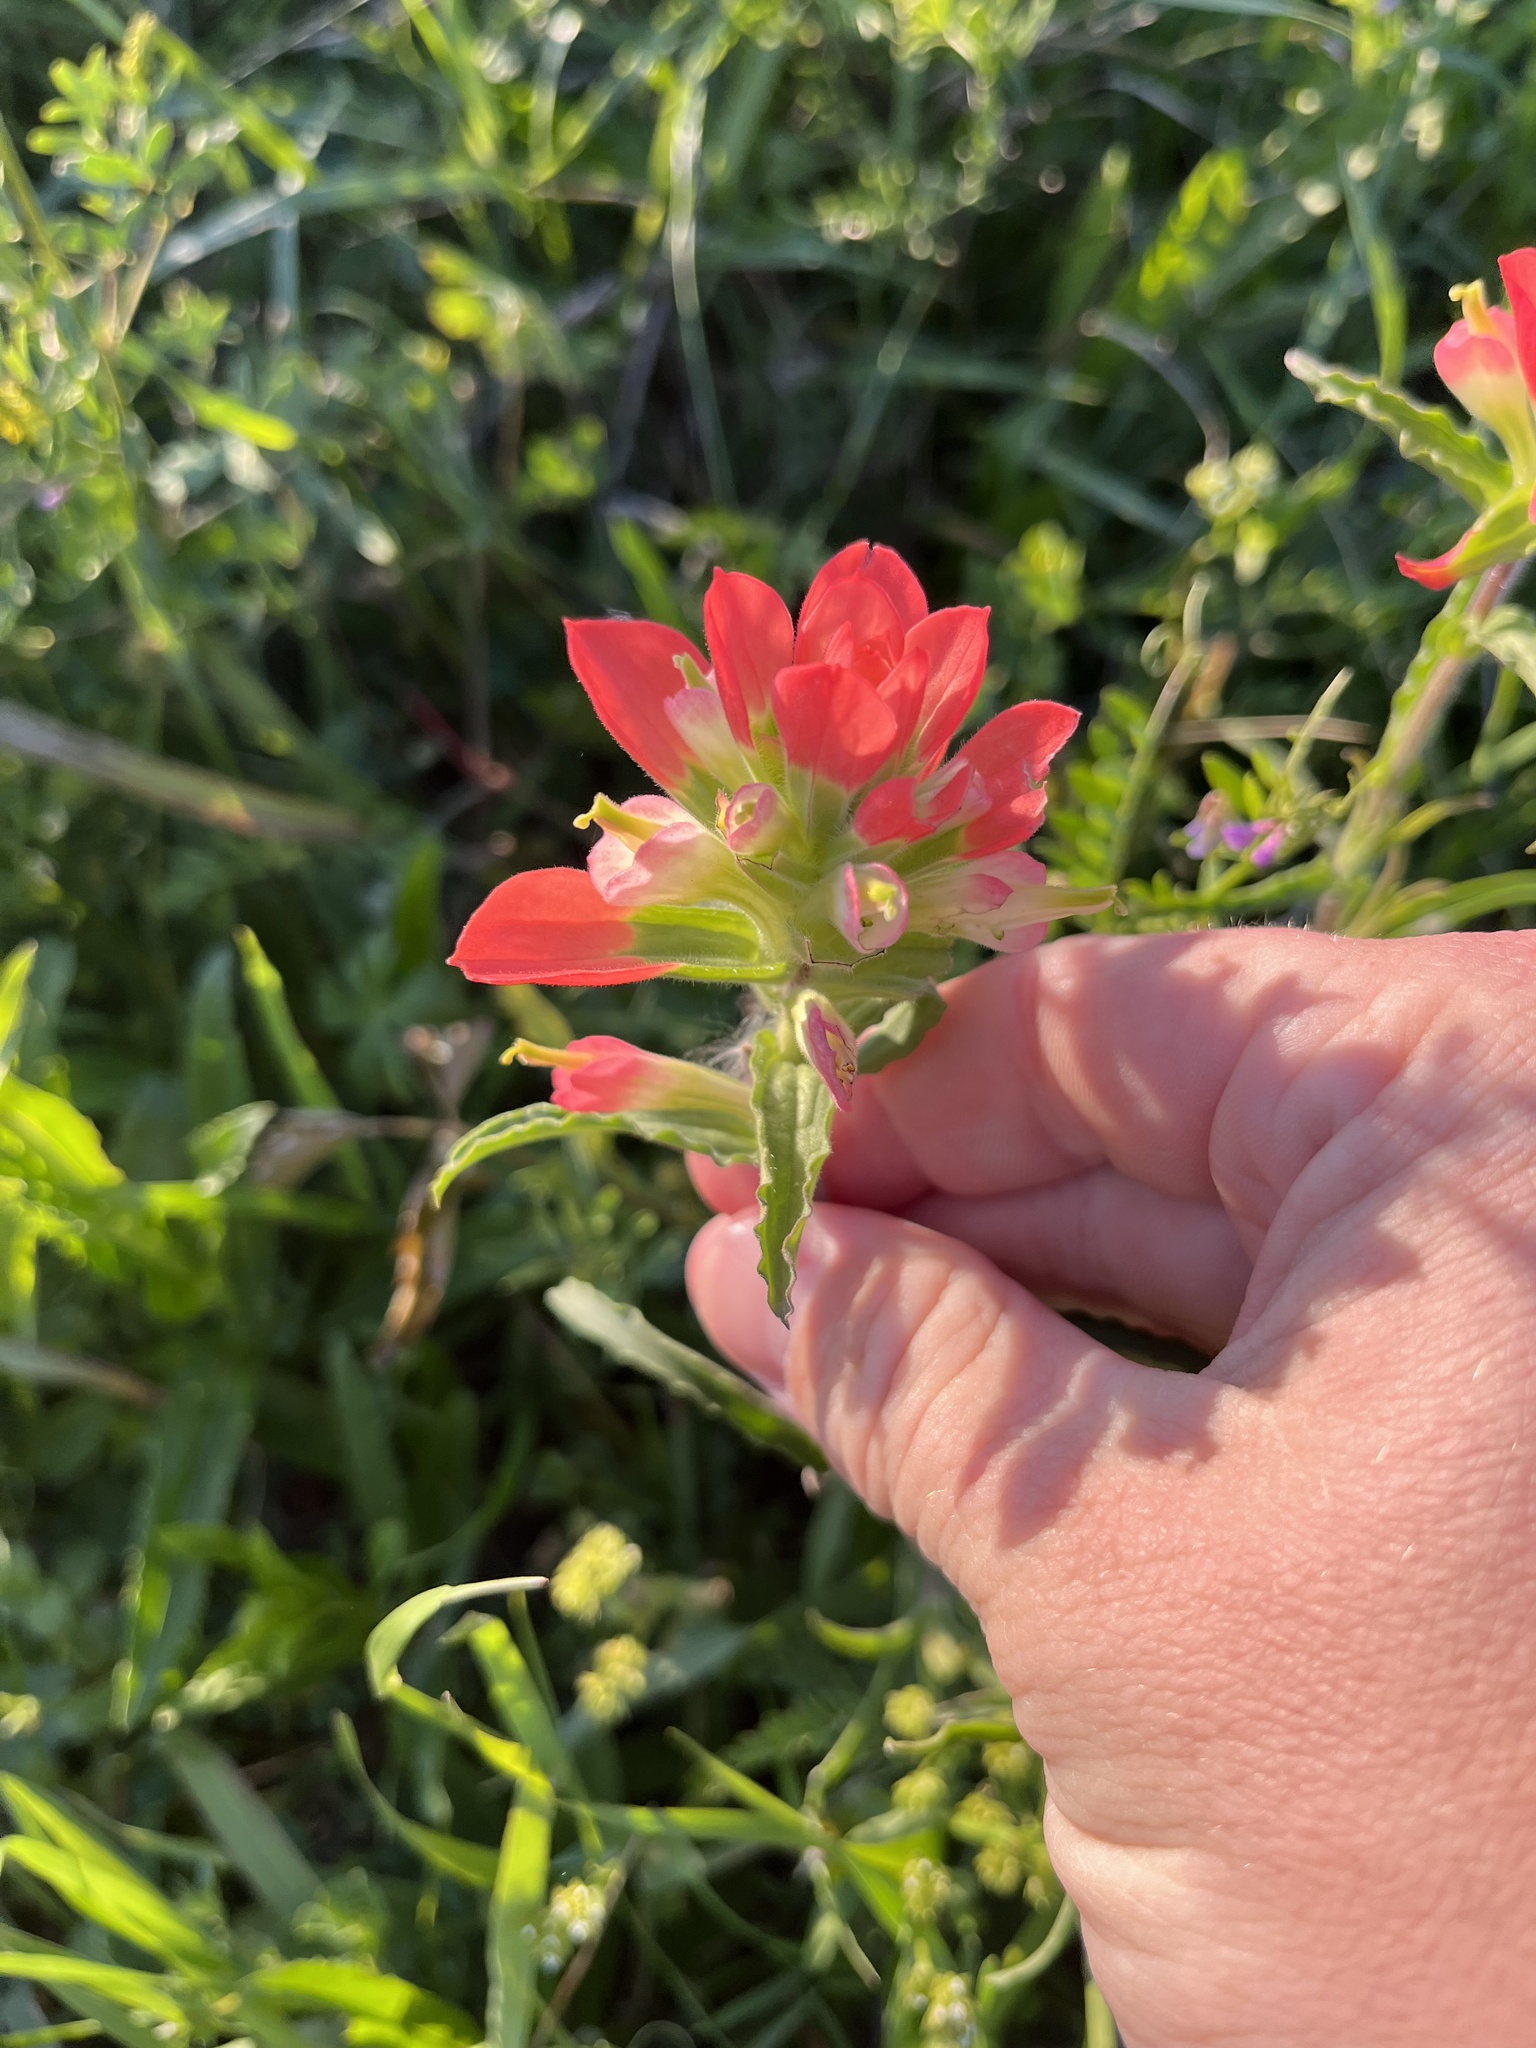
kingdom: Plantae
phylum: Tracheophyta
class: Magnoliopsida
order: Lamiales
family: Orobanchaceae
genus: Castilleja
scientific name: Castilleja indivisa
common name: Texas paintbrush
